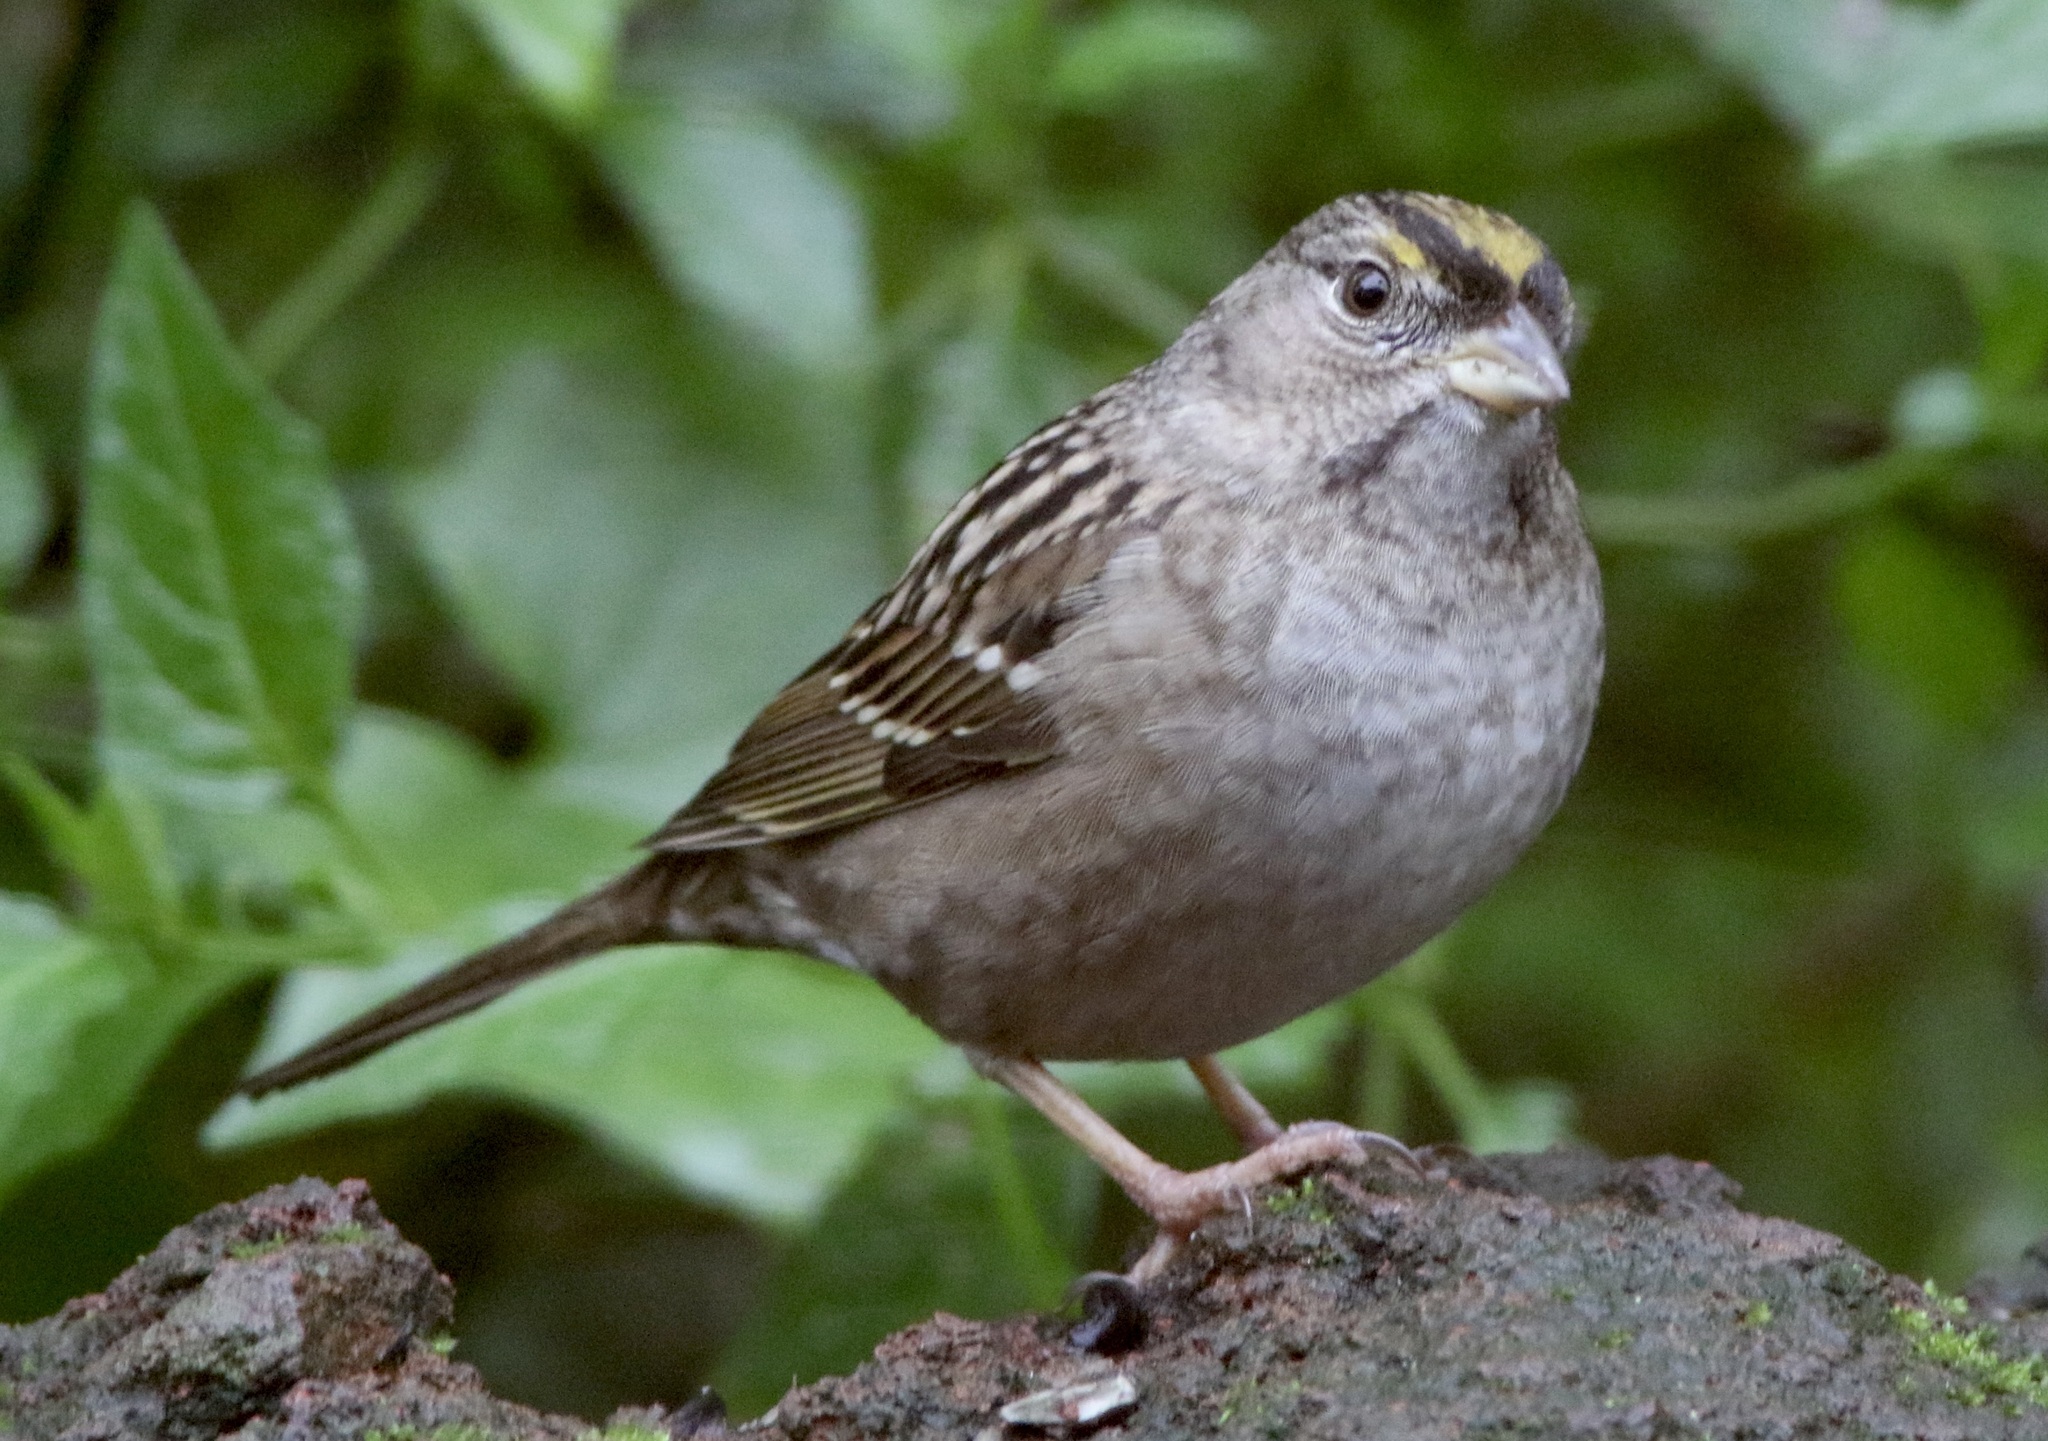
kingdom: Animalia
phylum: Chordata
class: Aves
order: Passeriformes
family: Passerellidae
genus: Zonotrichia
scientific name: Zonotrichia atricapilla
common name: Golden-crowned sparrow
